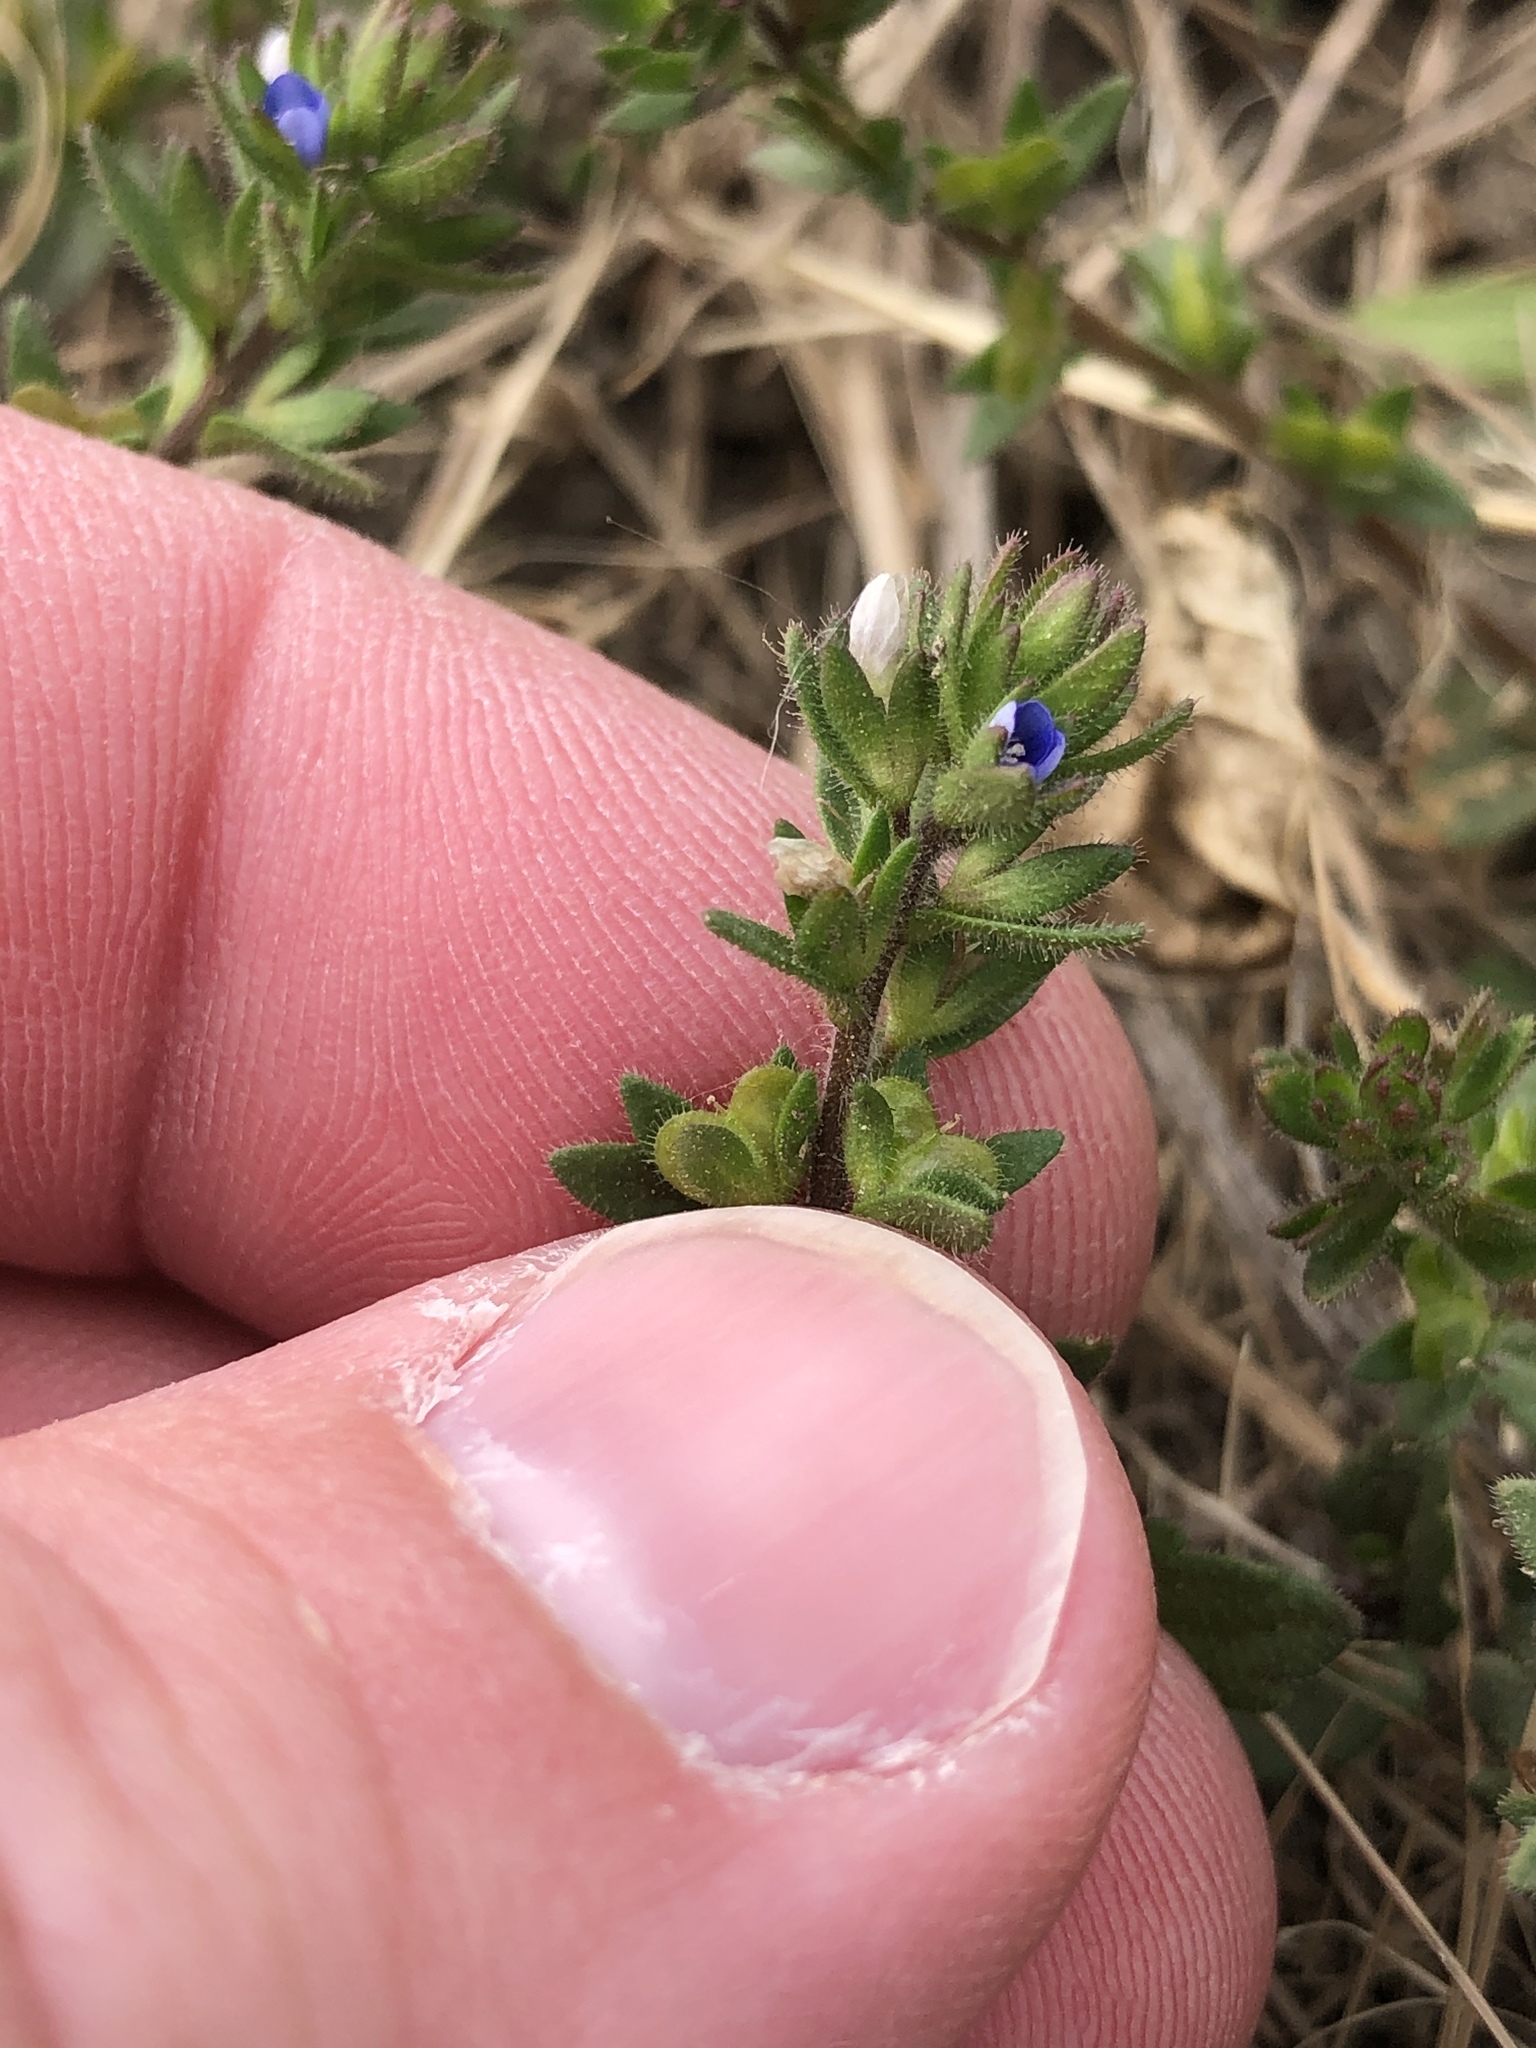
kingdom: Plantae
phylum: Tracheophyta
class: Magnoliopsida
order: Lamiales
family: Plantaginaceae
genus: Veronica
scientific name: Veronica arvensis
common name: Corn speedwell
